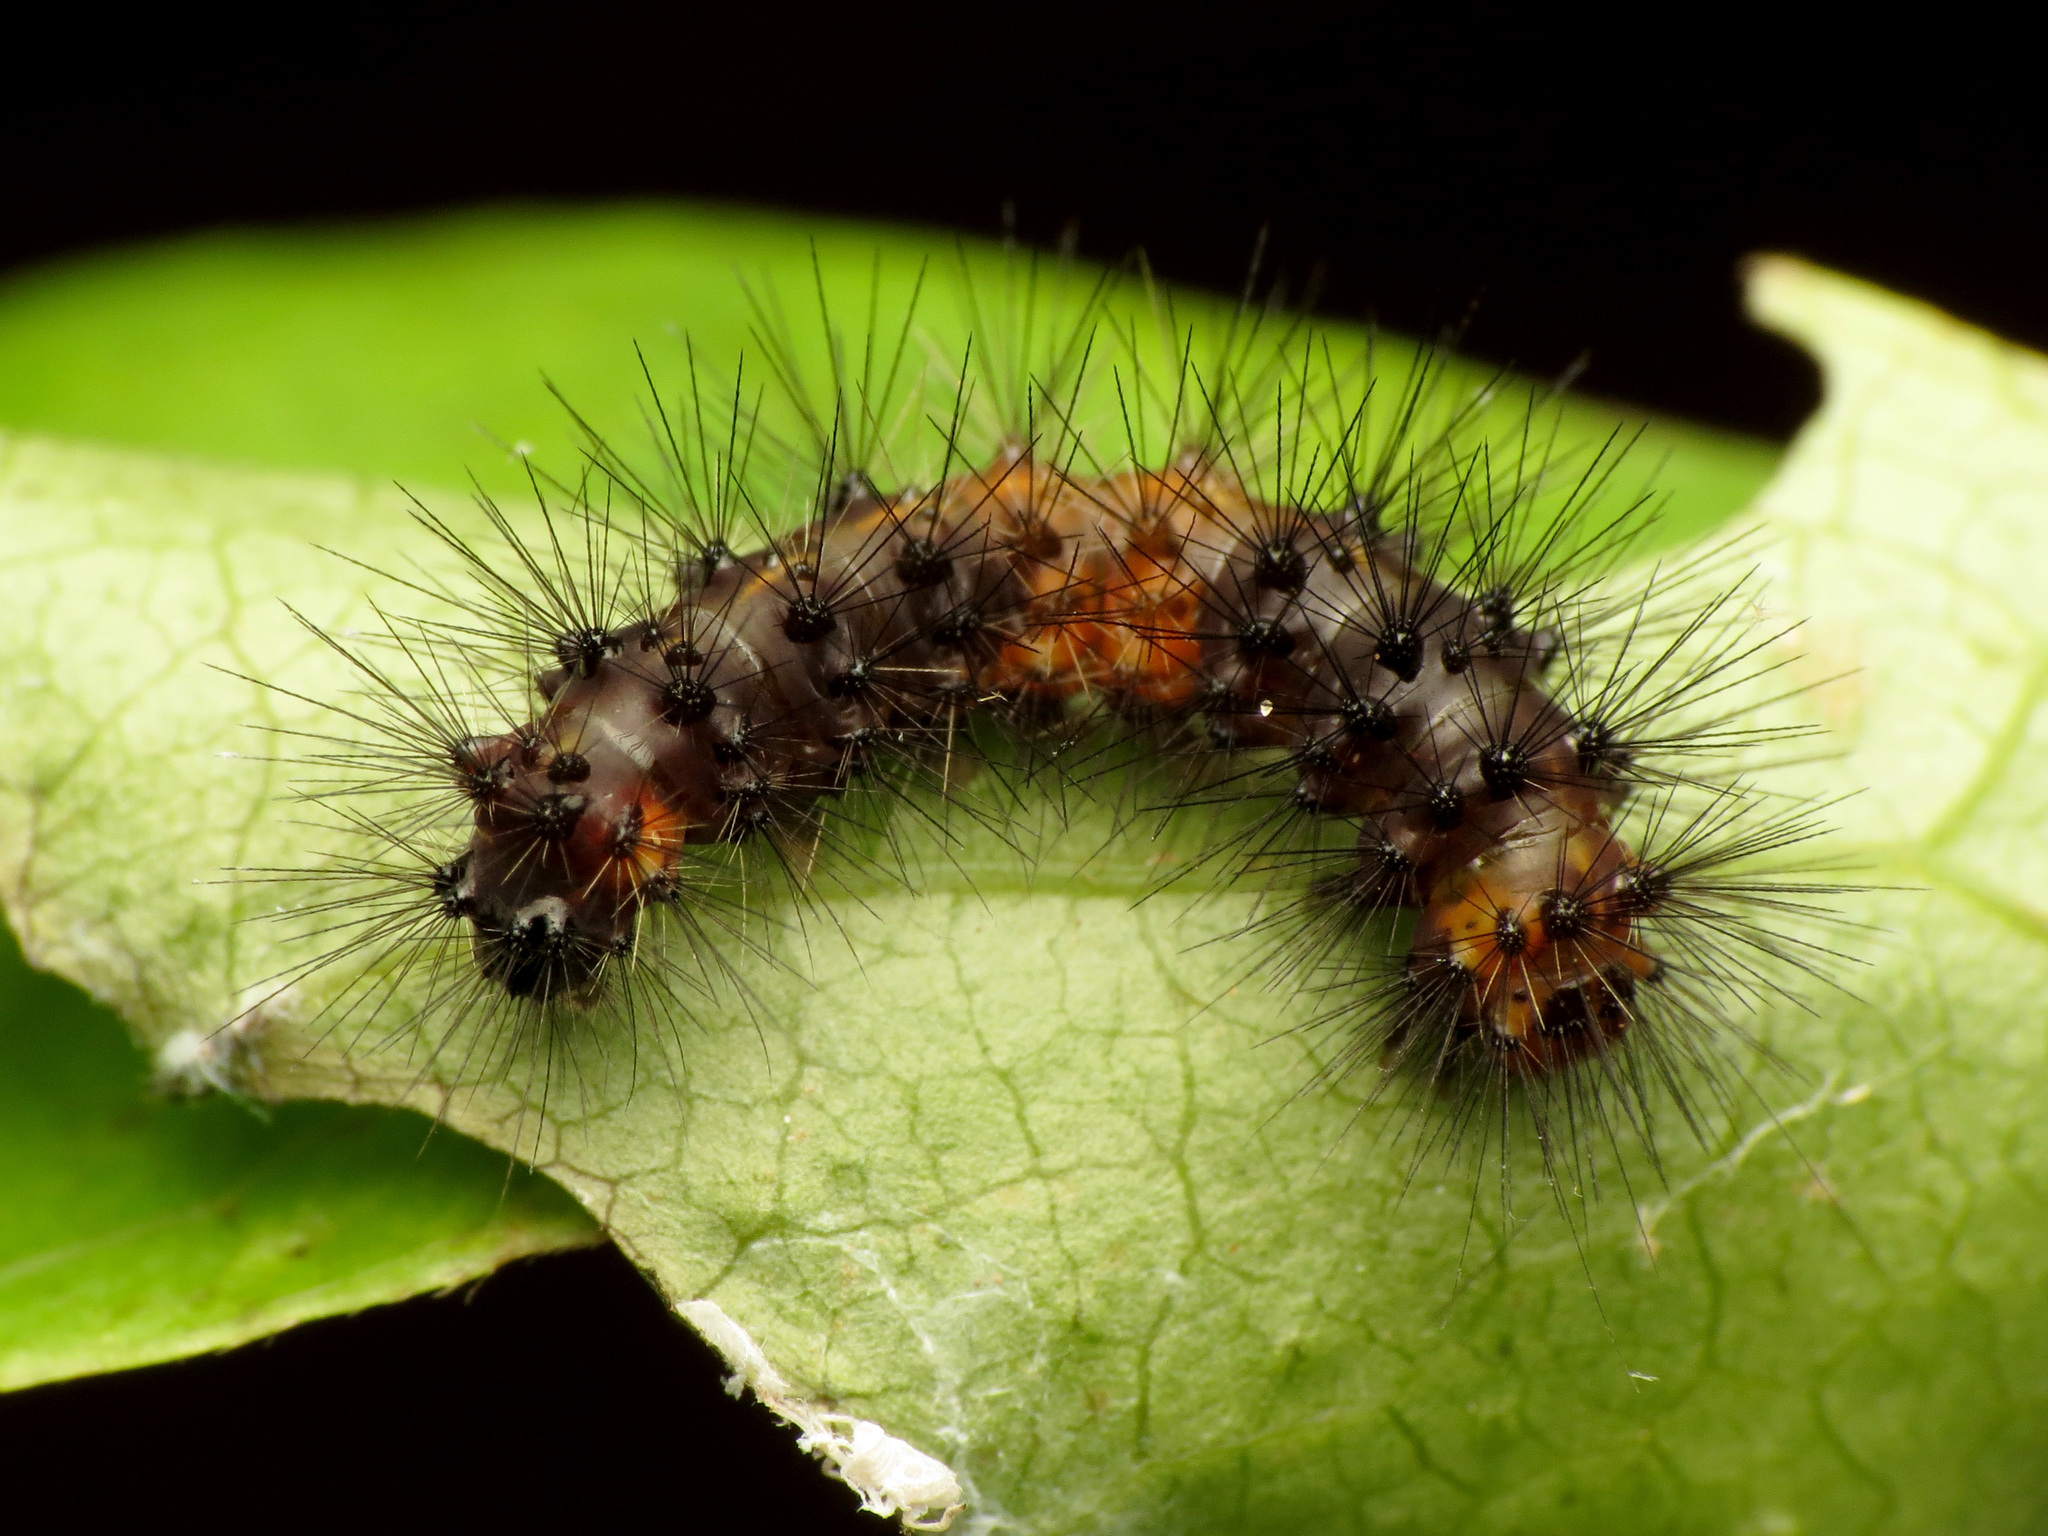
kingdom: Animalia
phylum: Arthropoda
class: Insecta
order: Lepidoptera
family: Erebidae
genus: Hypercompe
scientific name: Hypercompe scribonia
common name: Giant leopard moth
